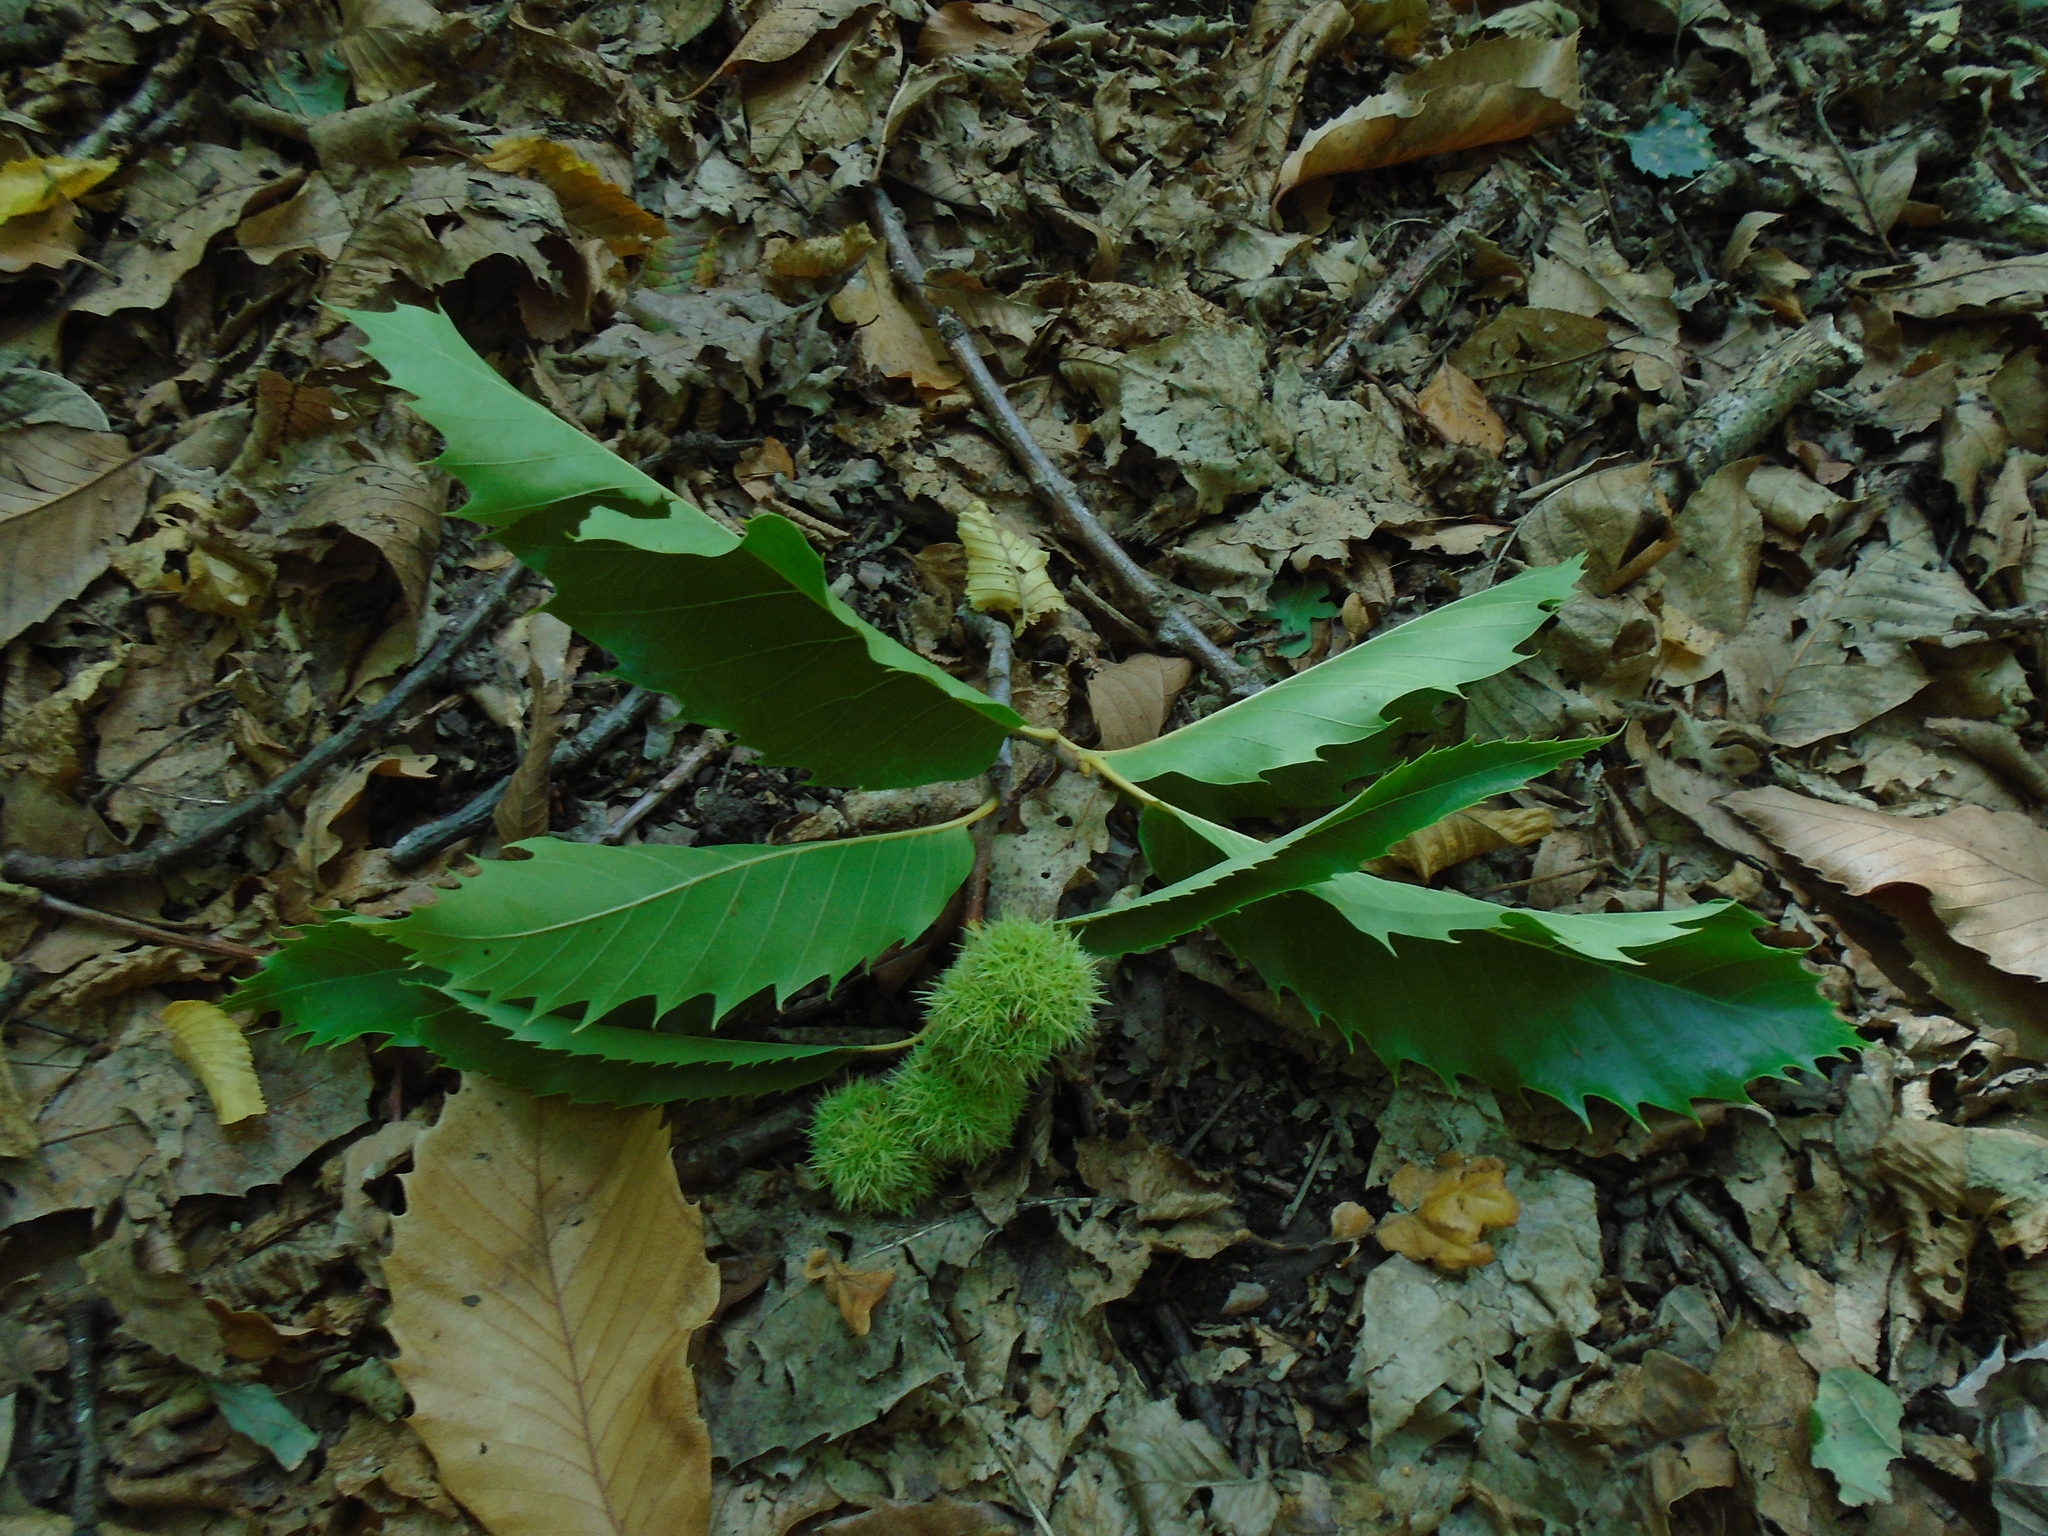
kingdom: Plantae
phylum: Tracheophyta
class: Magnoliopsida
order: Fagales
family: Fagaceae
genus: Castanea
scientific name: Castanea sativa
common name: Sweet chestnut
